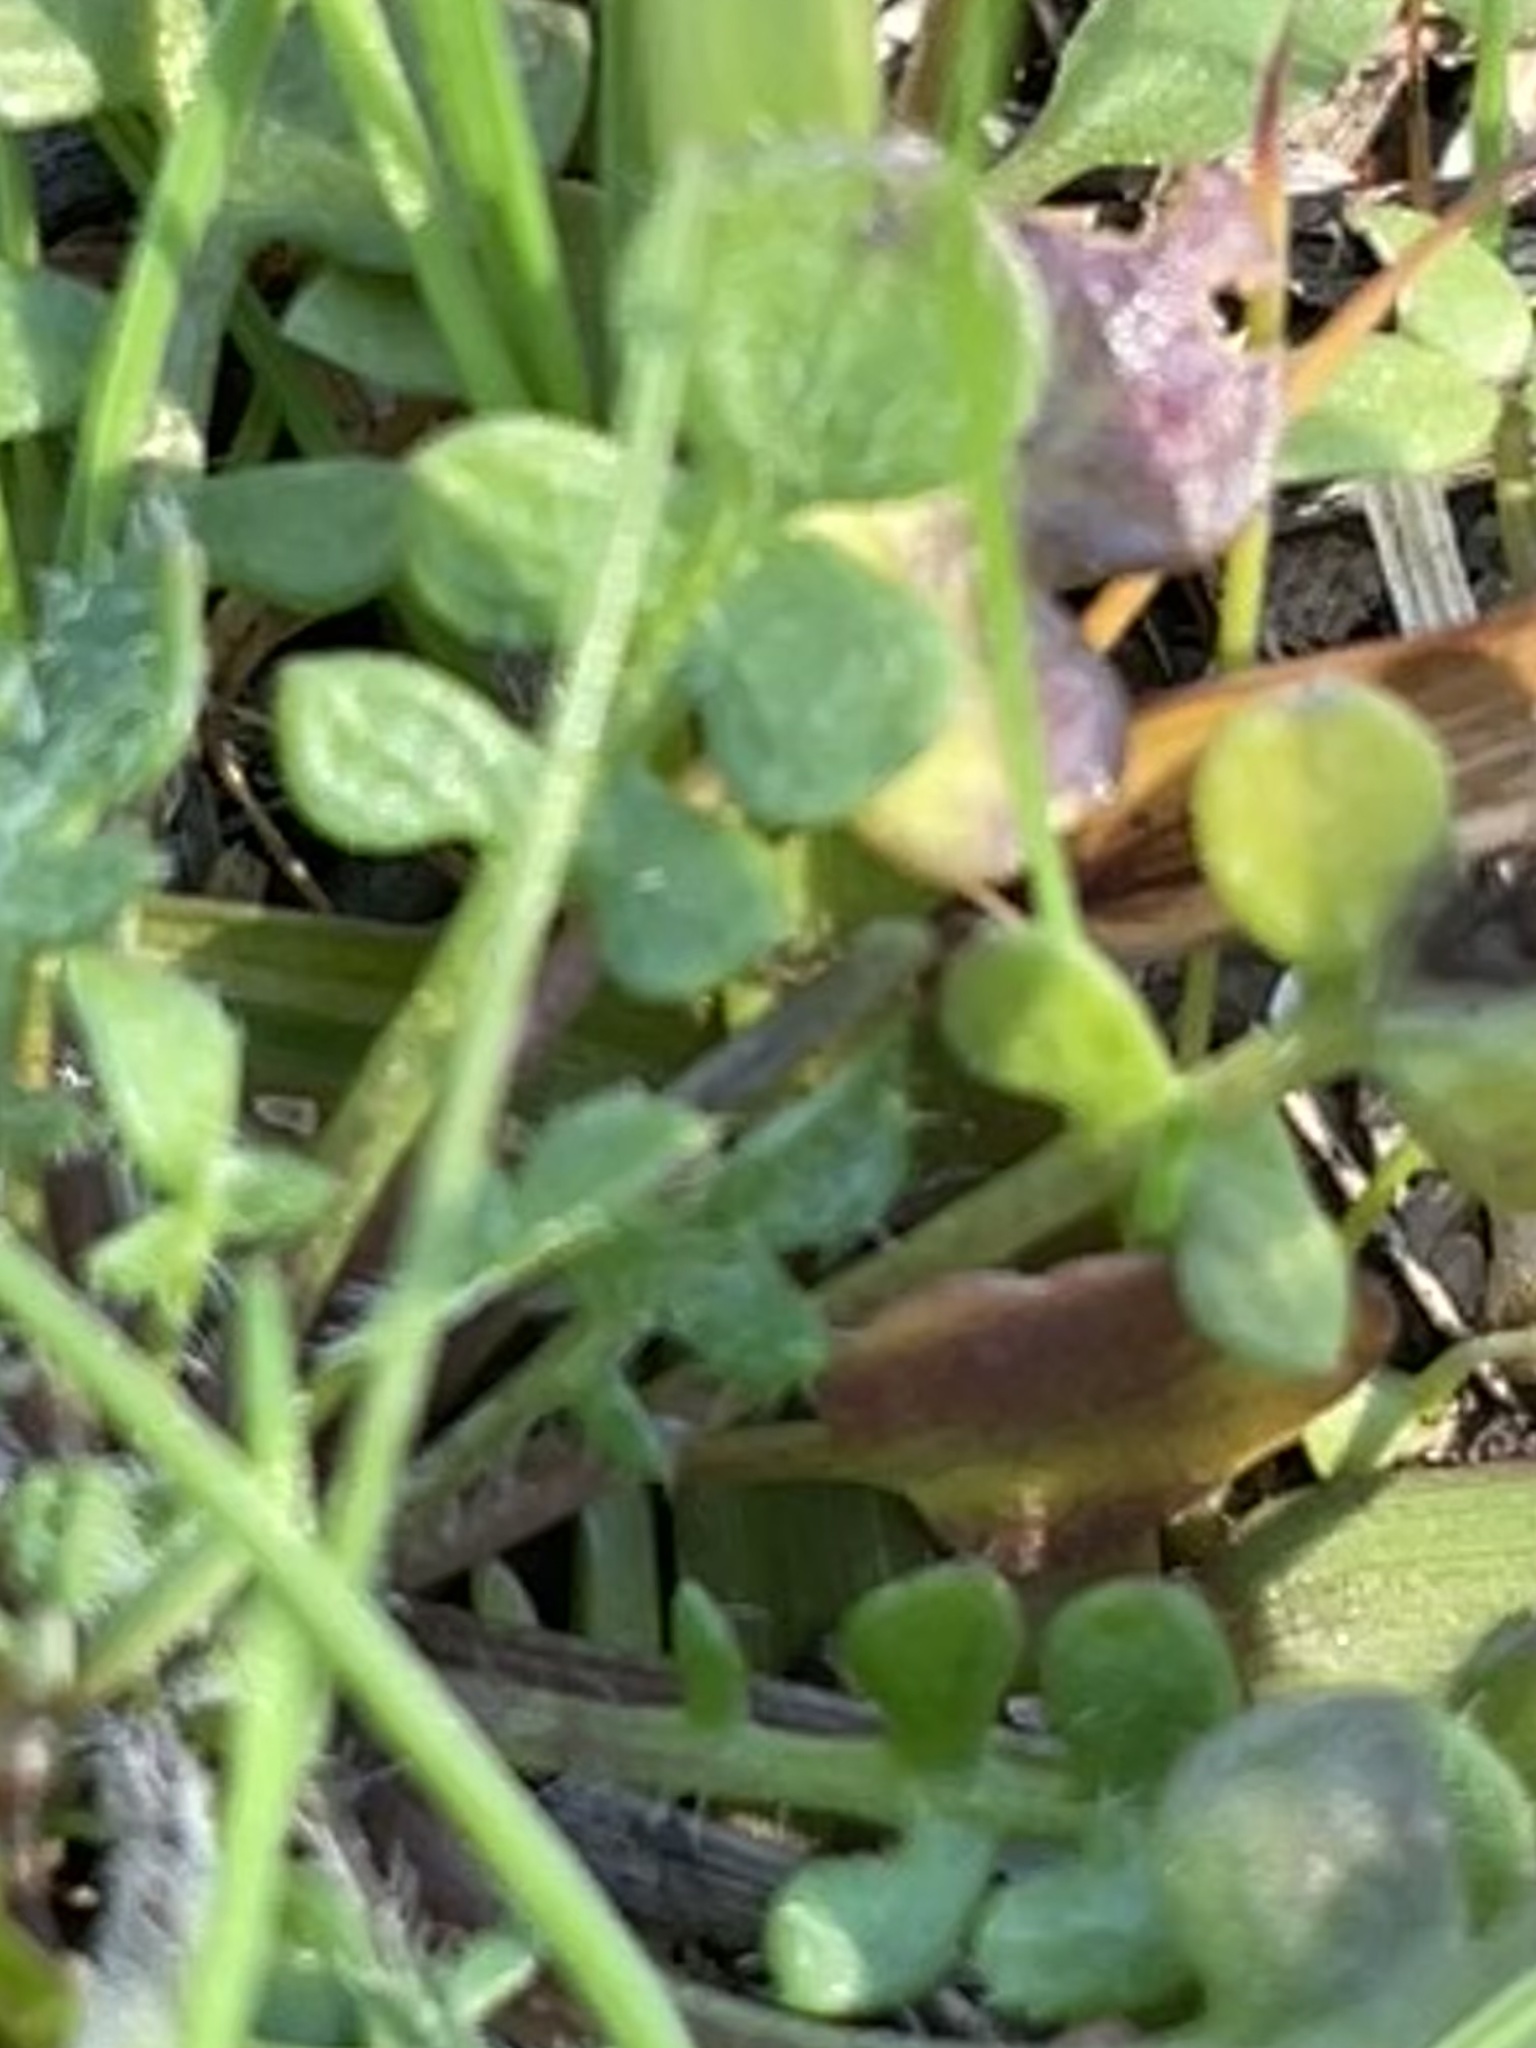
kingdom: Plantae
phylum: Tracheophyta
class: Magnoliopsida
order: Brassicales
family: Brassicaceae
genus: Teesdalia
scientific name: Teesdalia nudicaulis
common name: Shepherd's cress
